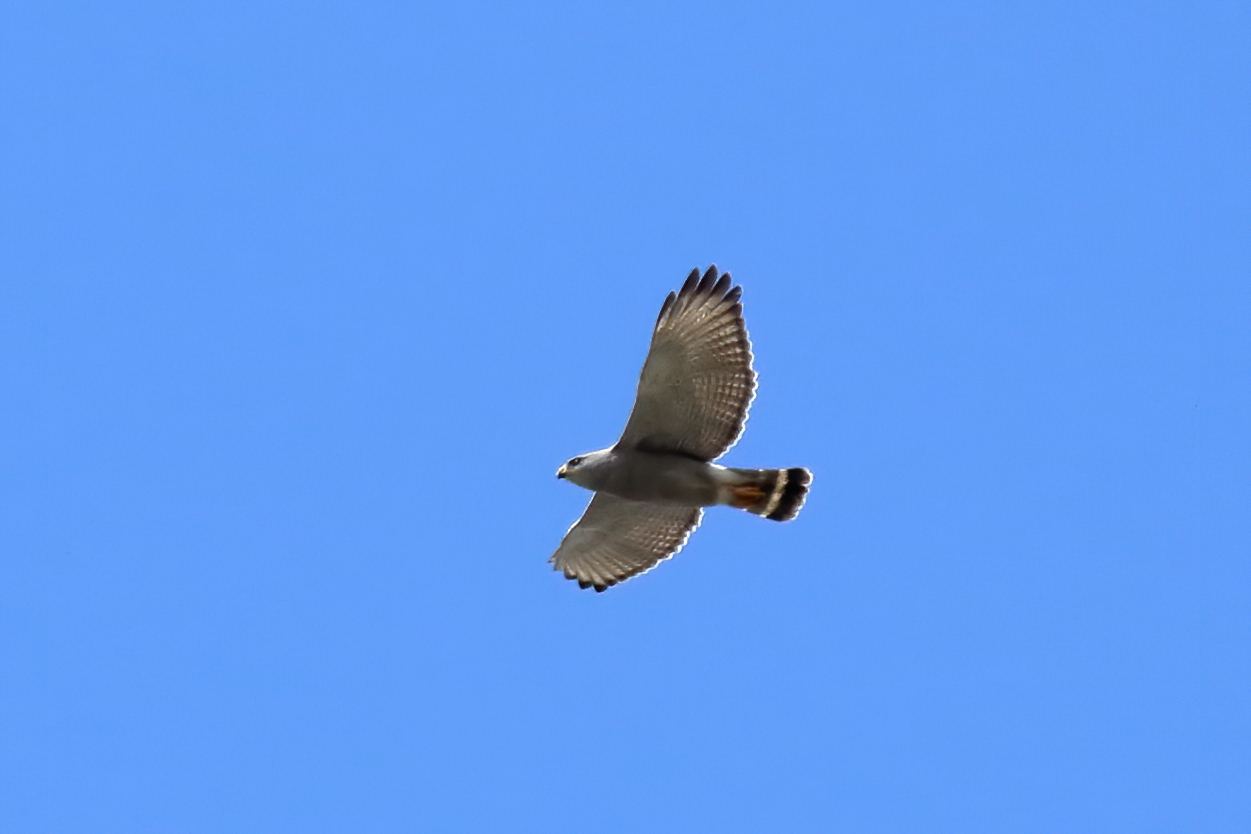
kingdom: Animalia
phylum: Chordata
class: Aves
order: Accipitriformes
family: Accipitridae
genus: Buteo
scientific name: Buteo nitidus
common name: Grey-lined hawk
